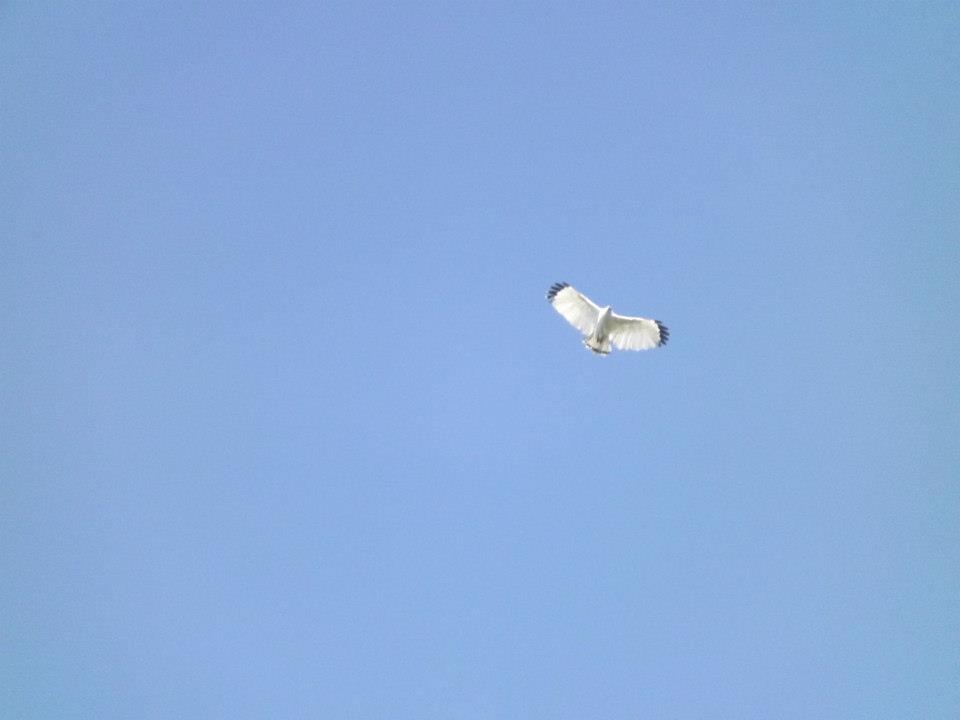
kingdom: Animalia
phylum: Chordata
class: Aves
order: Accipitriformes
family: Accipitridae
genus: Leucopternis
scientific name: Leucopternis albicollis
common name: White hawk
